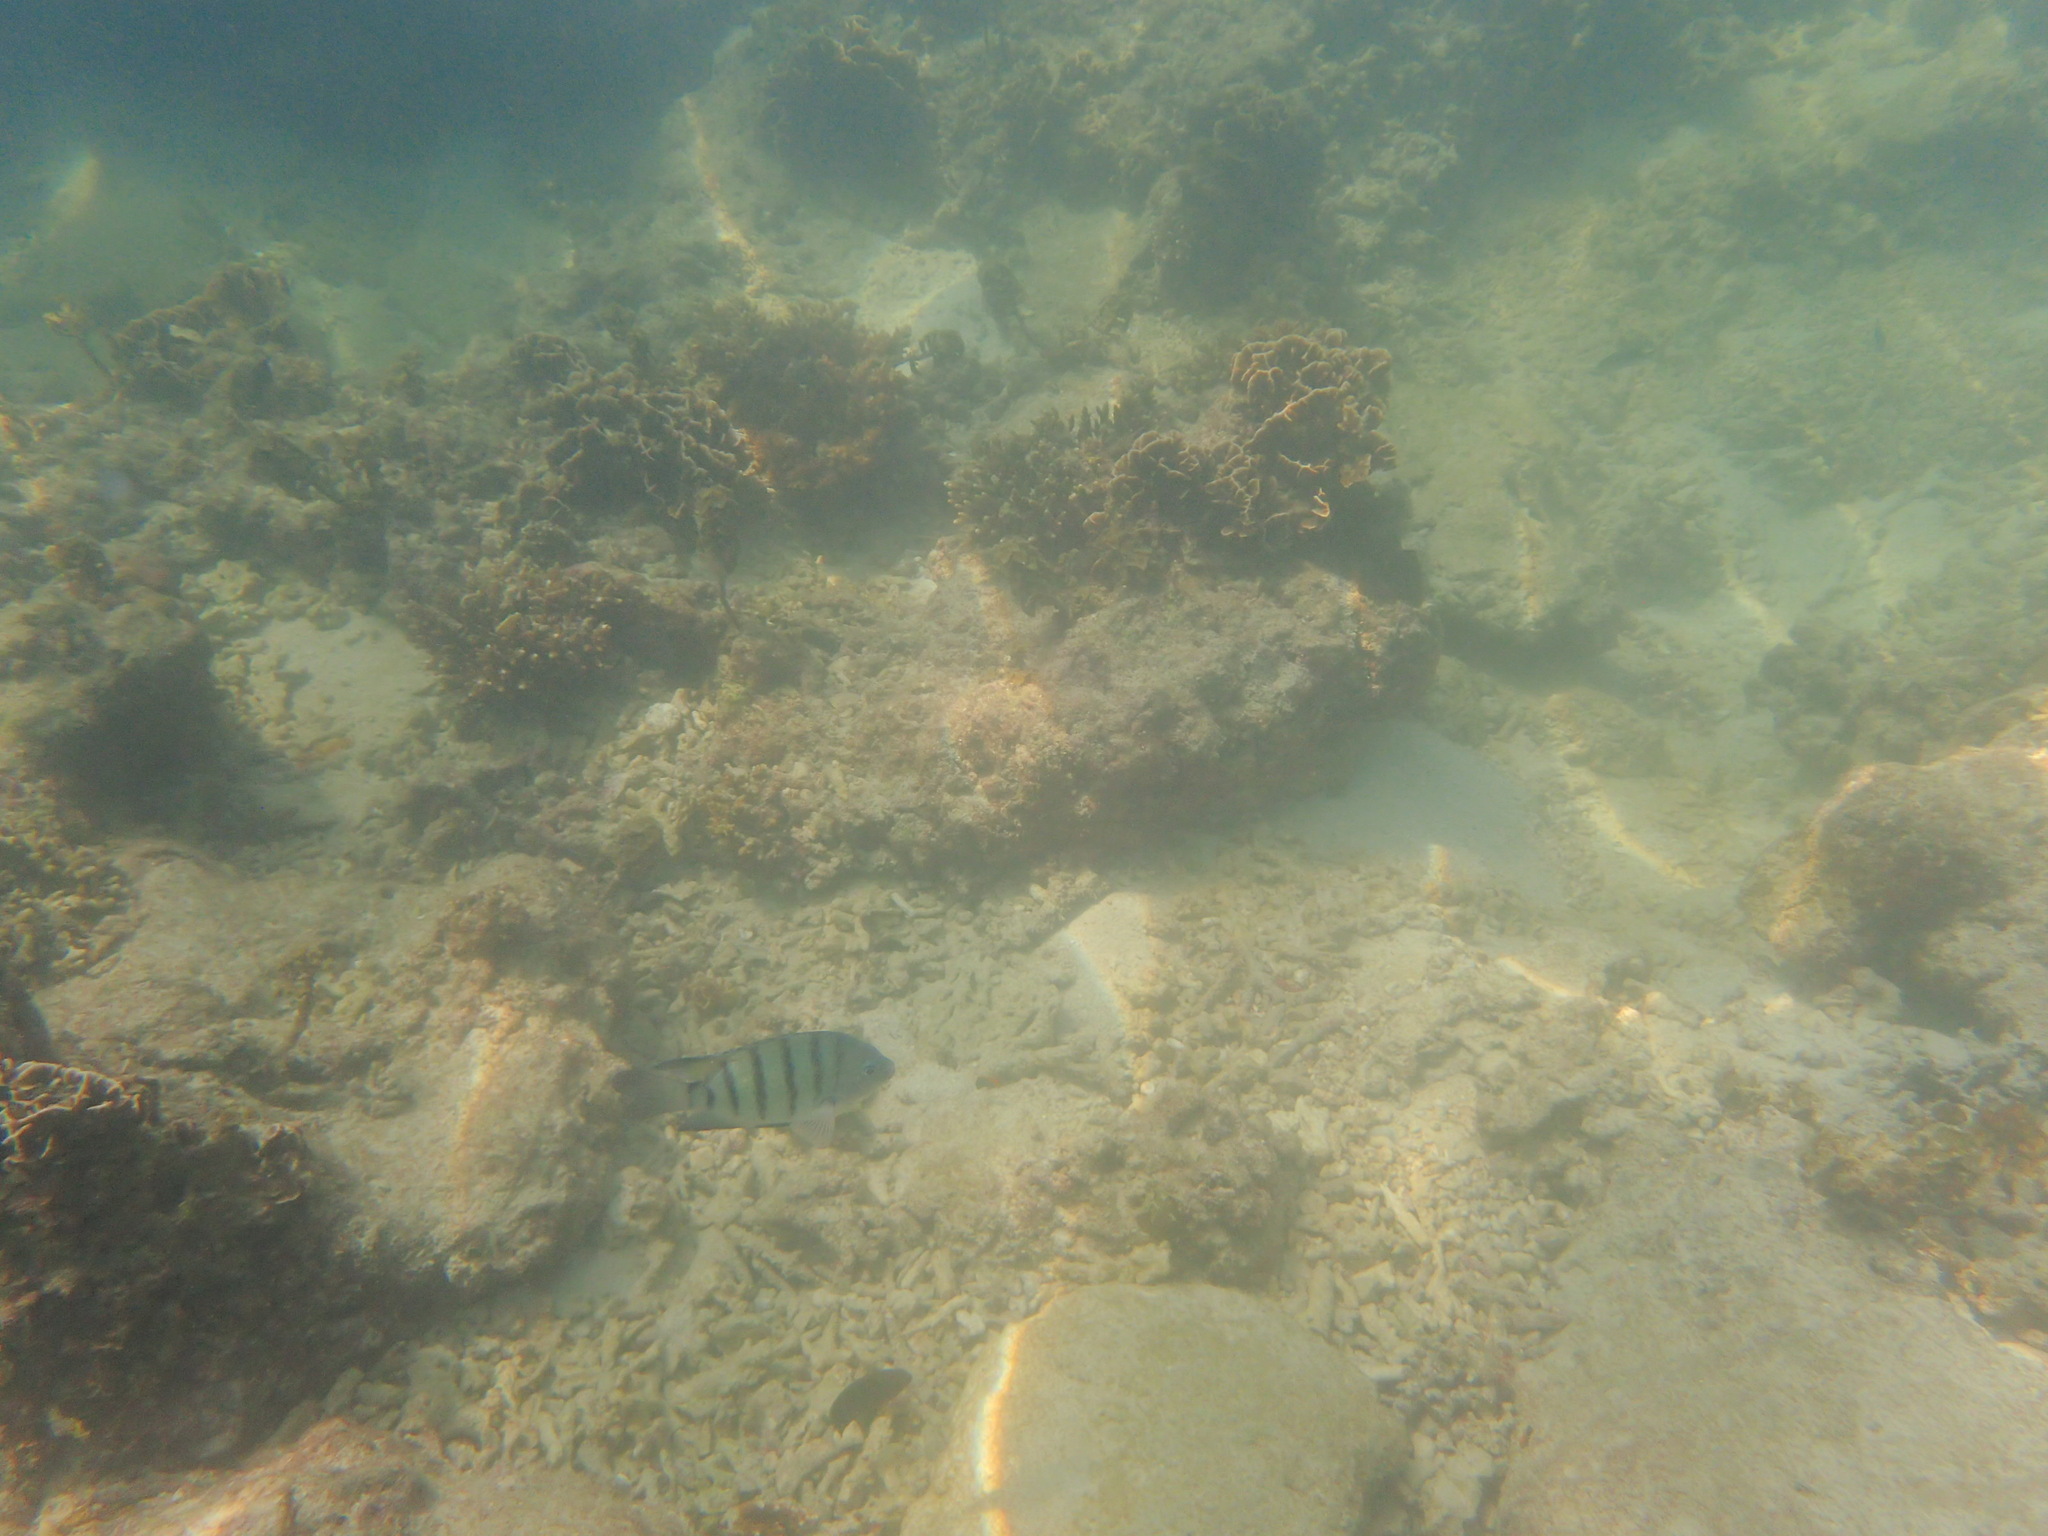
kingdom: Animalia
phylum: Chordata
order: Perciformes
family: Pomacentridae
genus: Abudefduf
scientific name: Abudefduf bengalensis
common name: Bengal sergeant
